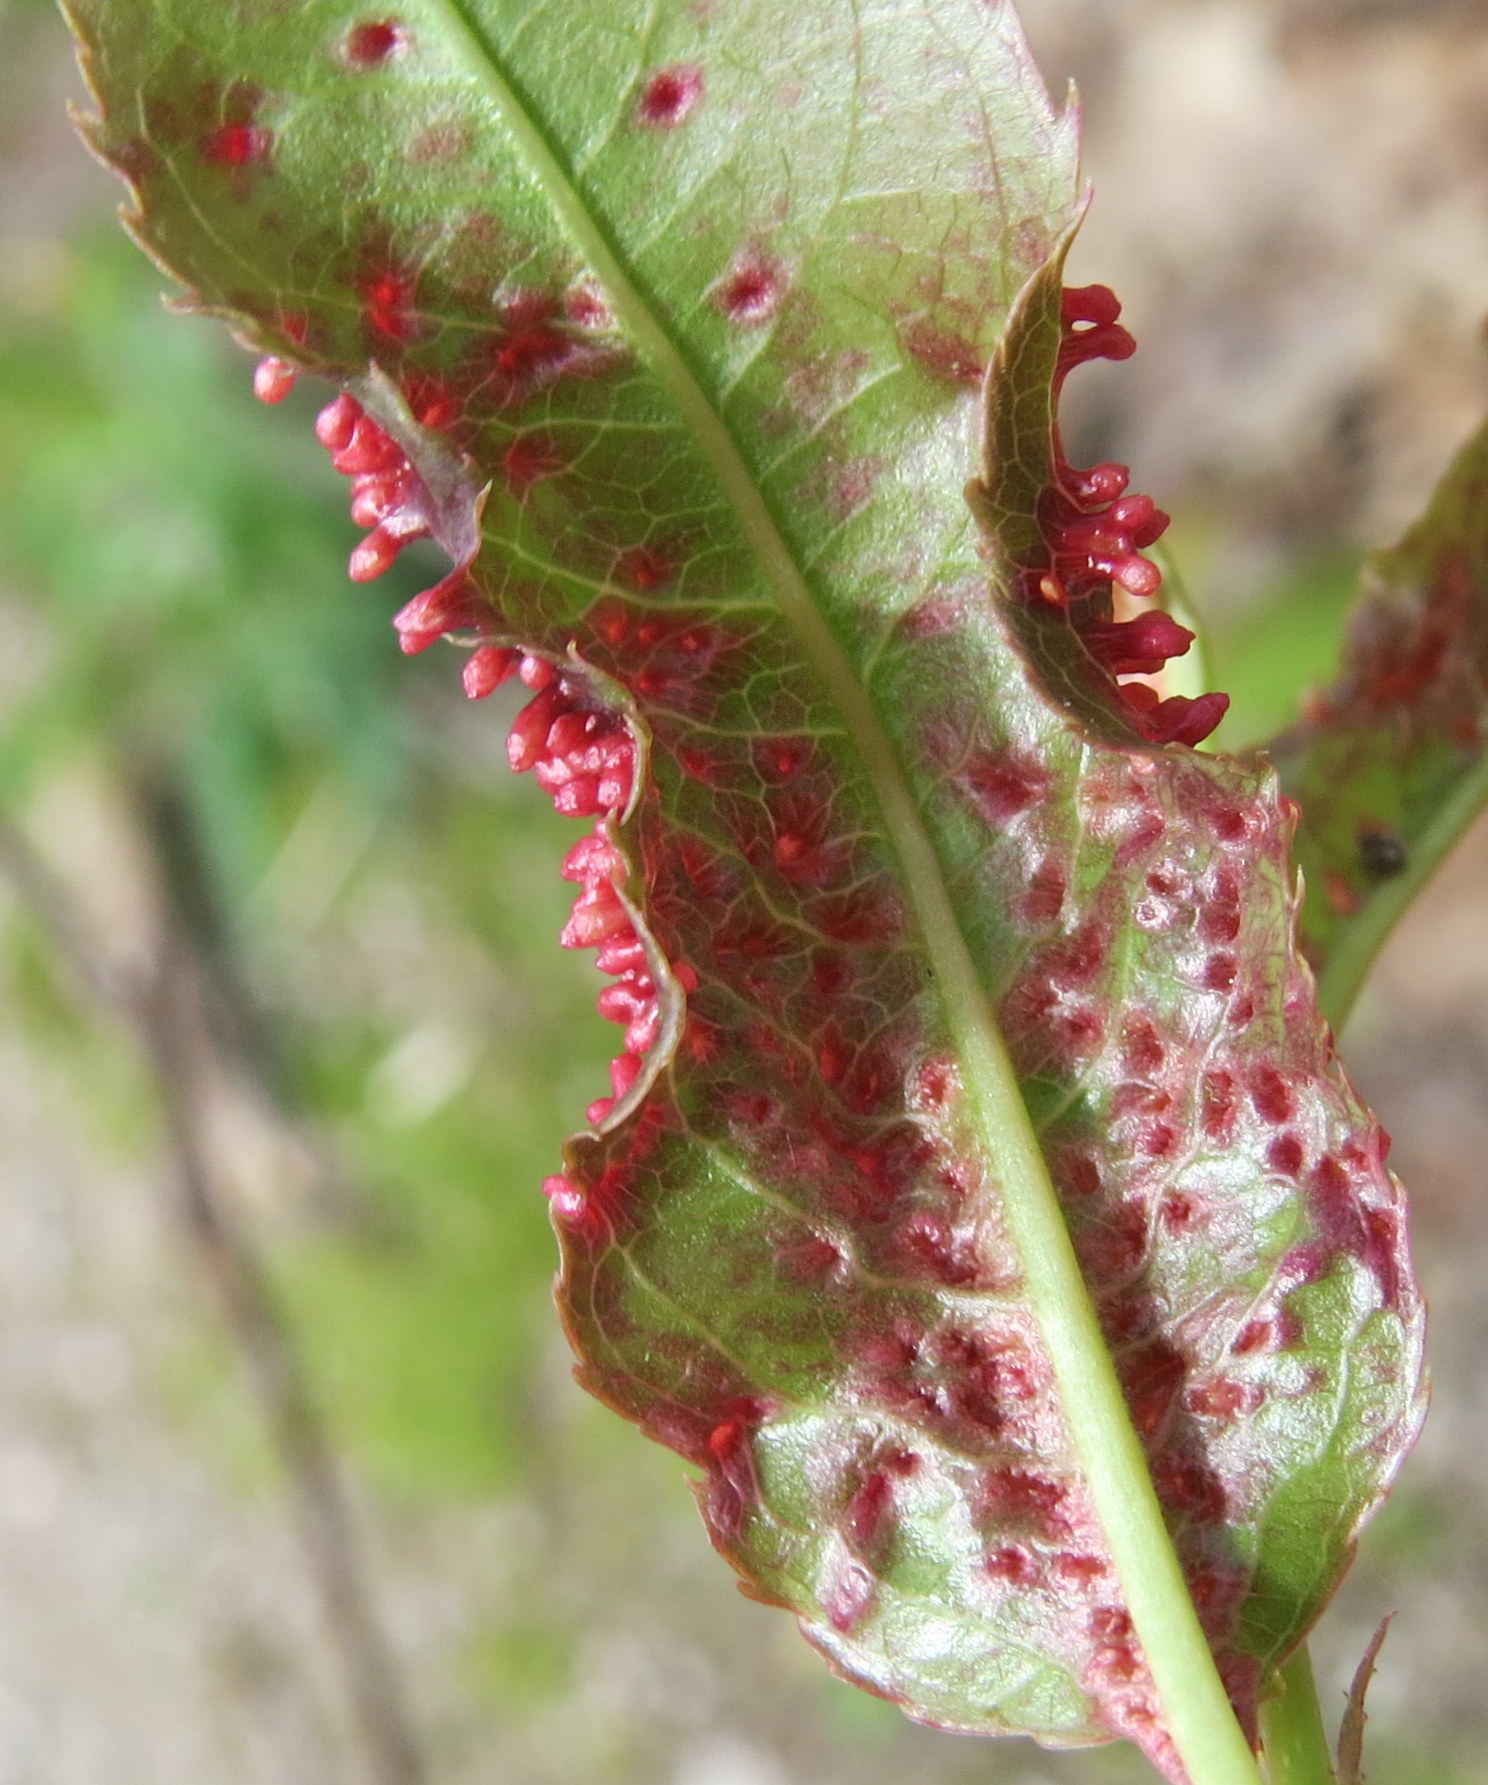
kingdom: Animalia
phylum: Arthropoda
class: Arachnida
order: Trombidiformes
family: Eriophyidae
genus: Eriophyes
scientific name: Eriophyes
